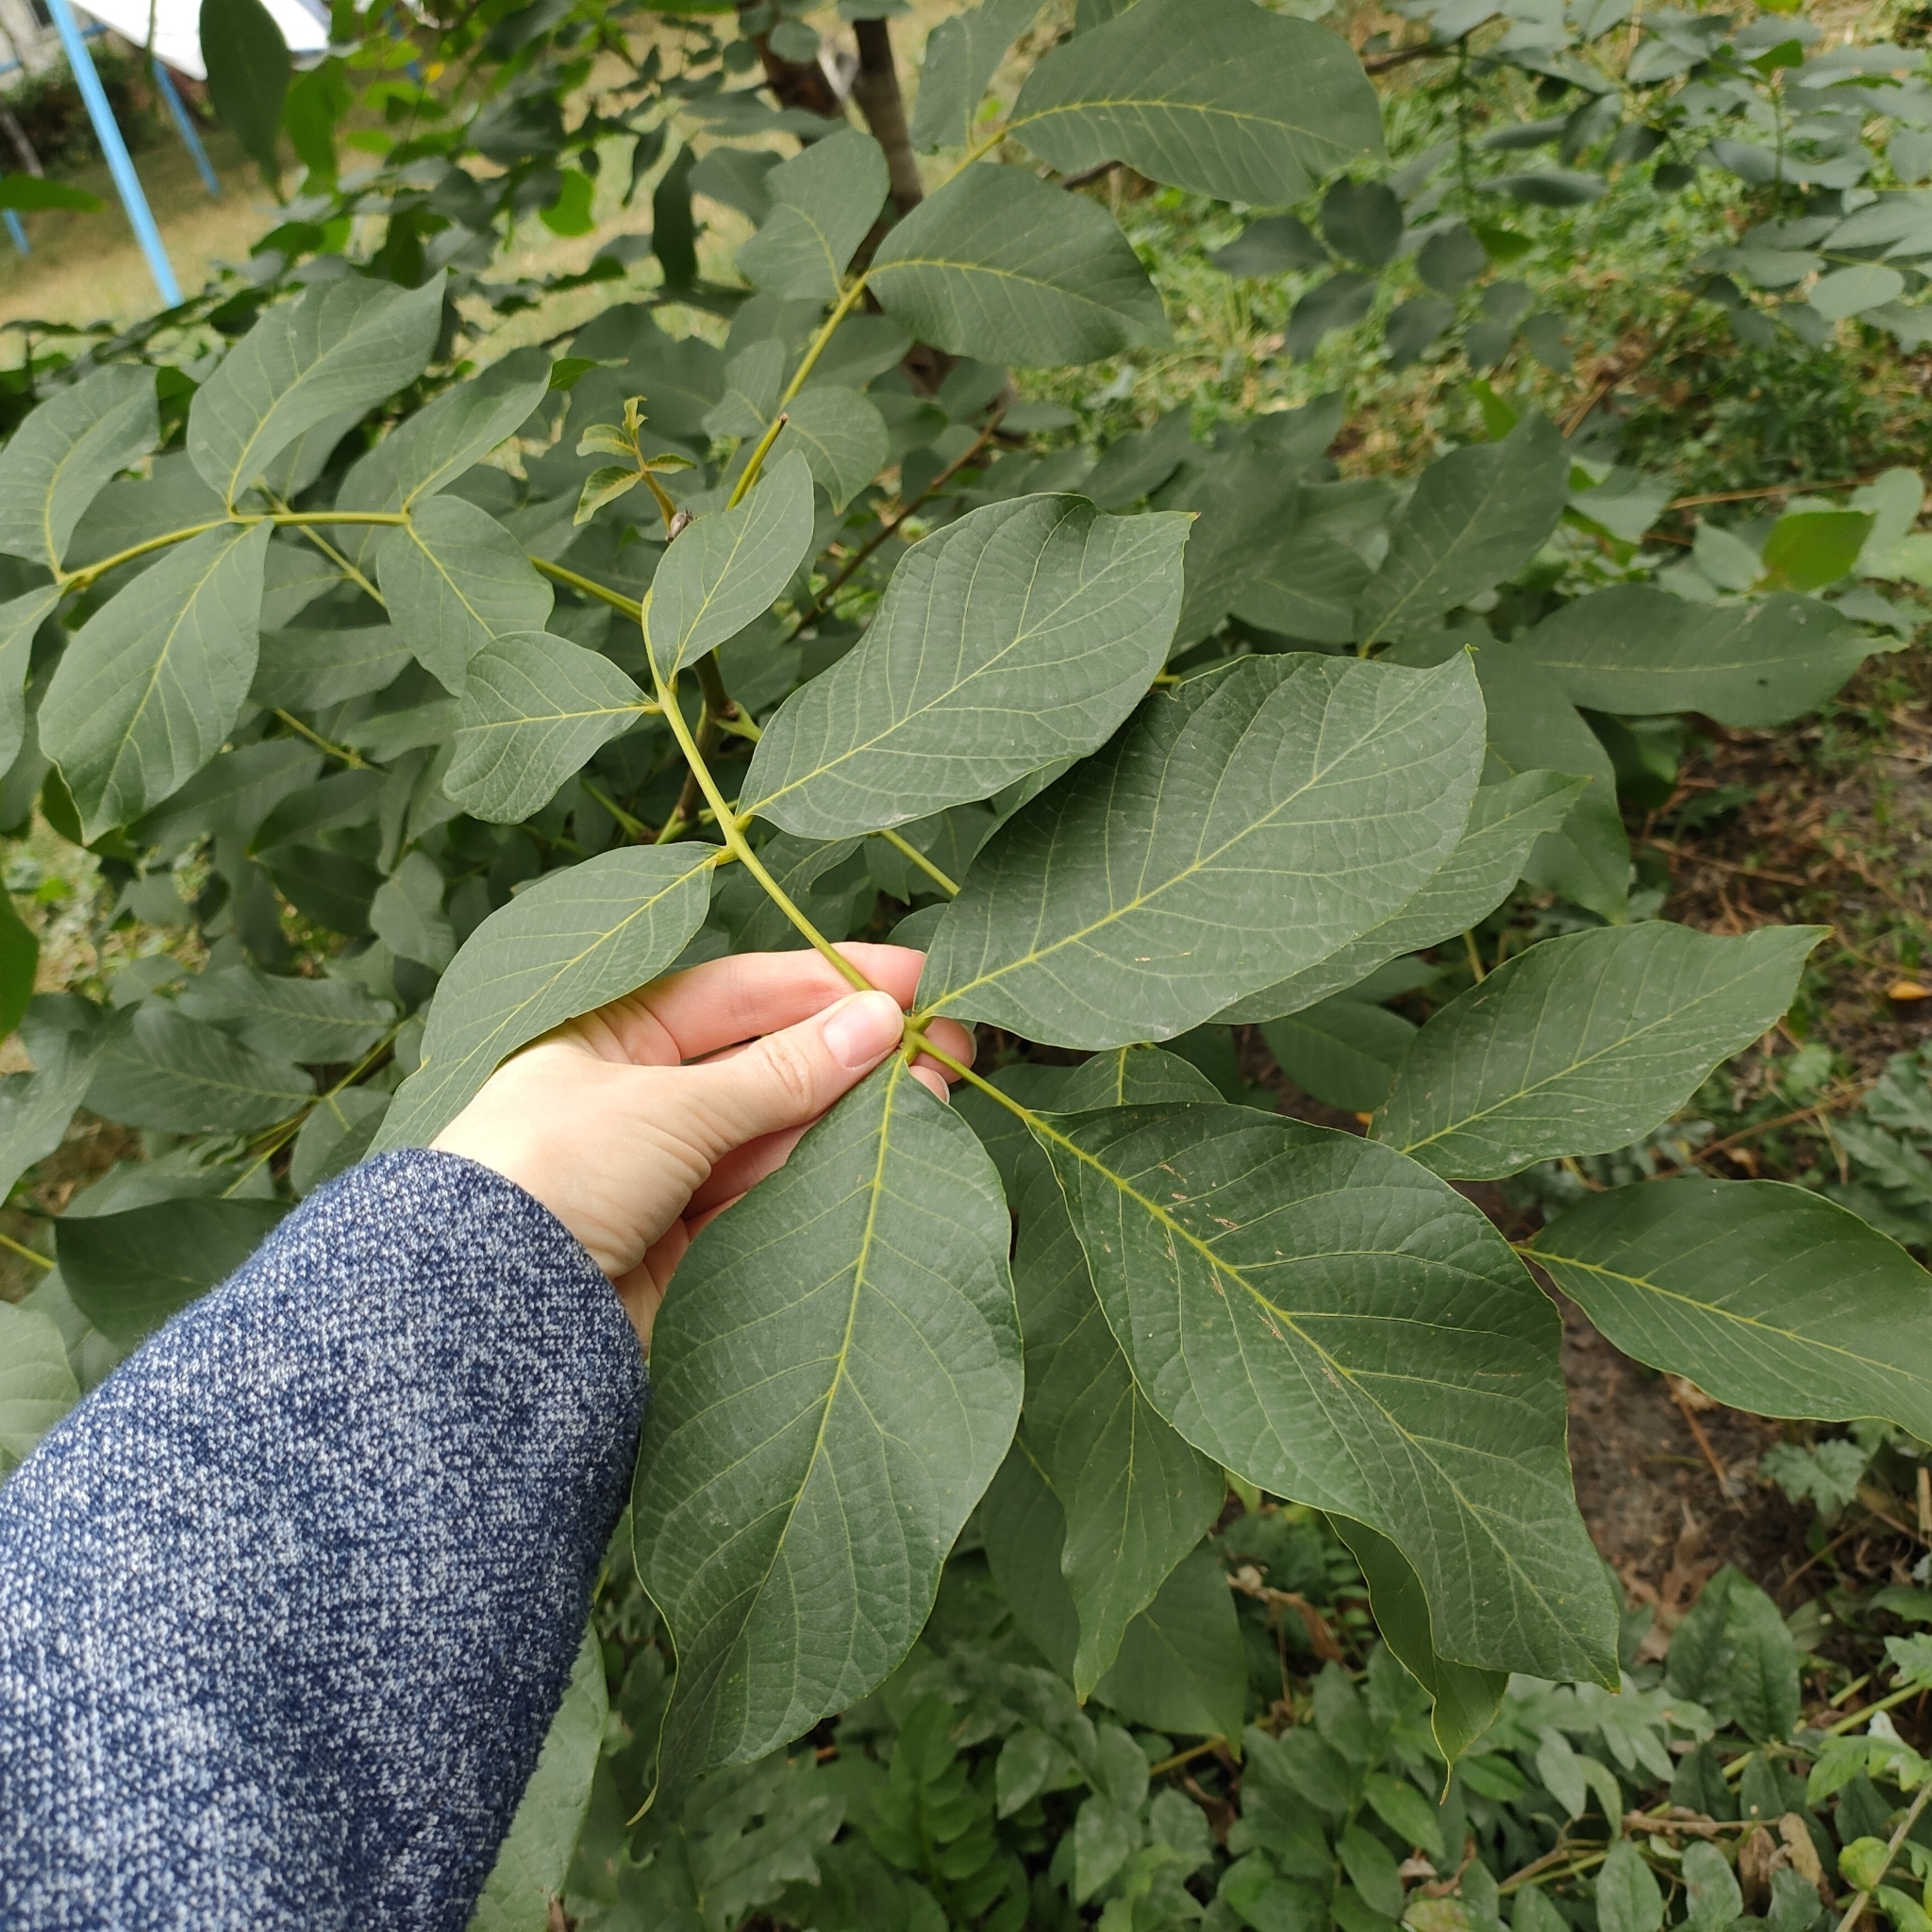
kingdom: Plantae
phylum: Tracheophyta
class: Magnoliopsida
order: Fagales
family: Juglandaceae
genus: Juglans
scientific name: Juglans regia
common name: Walnut
